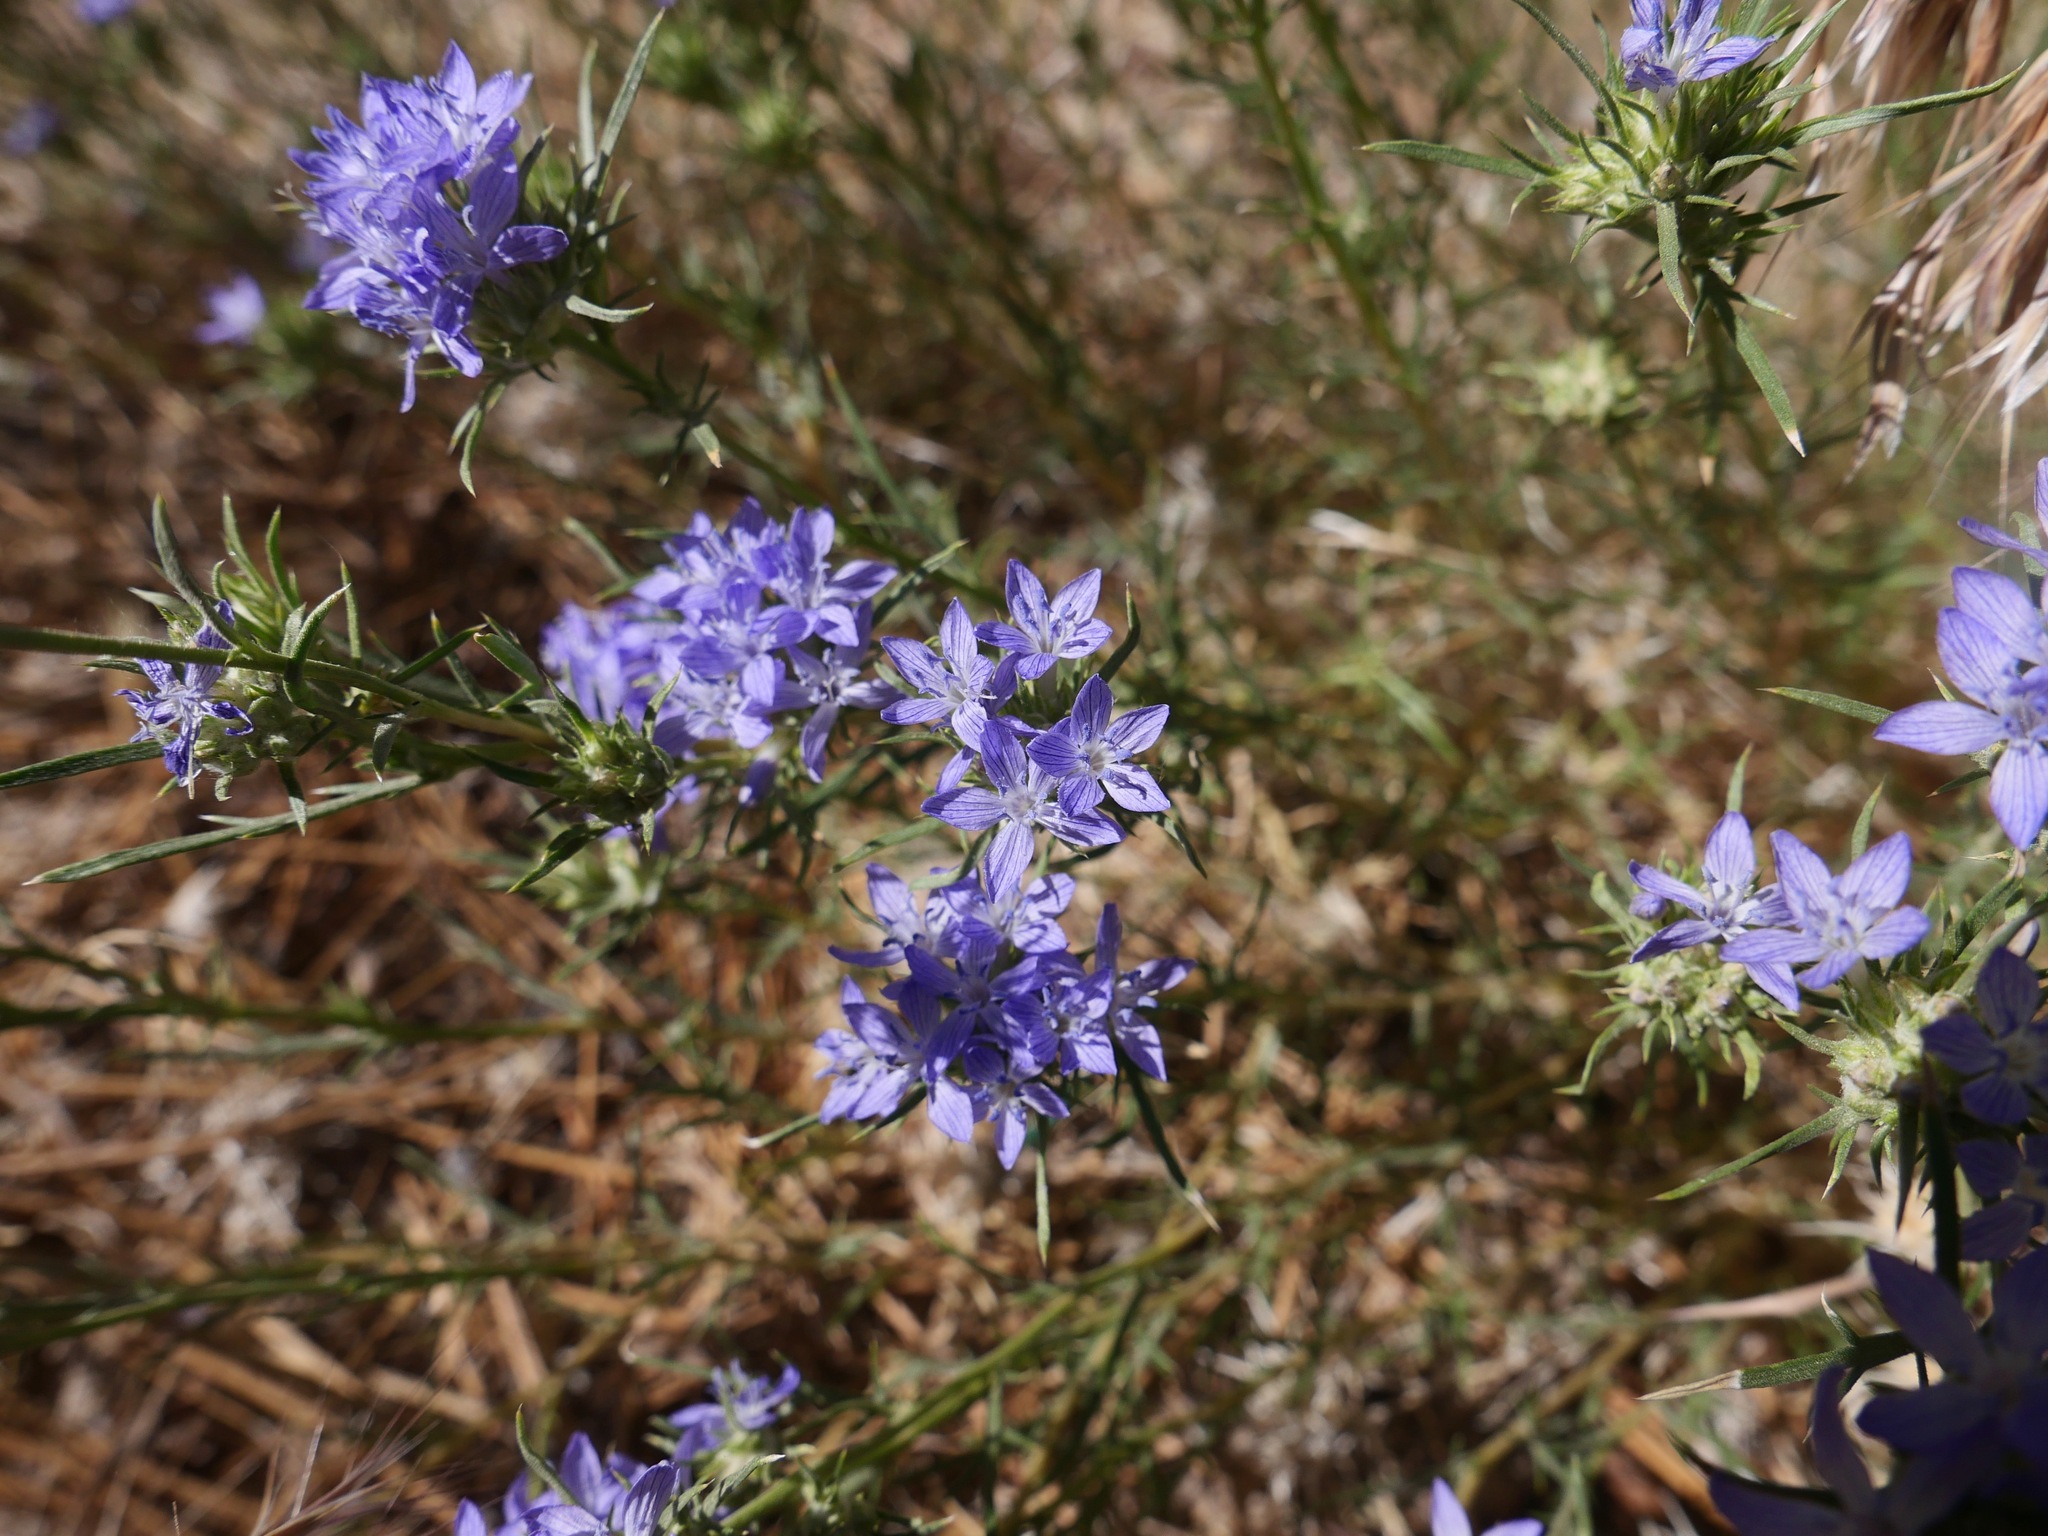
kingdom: Plantae
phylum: Tracheophyta
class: Magnoliopsida
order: Ericales
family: Polemoniaceae
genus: Eriastrum
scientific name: Eriastrum densifolium
